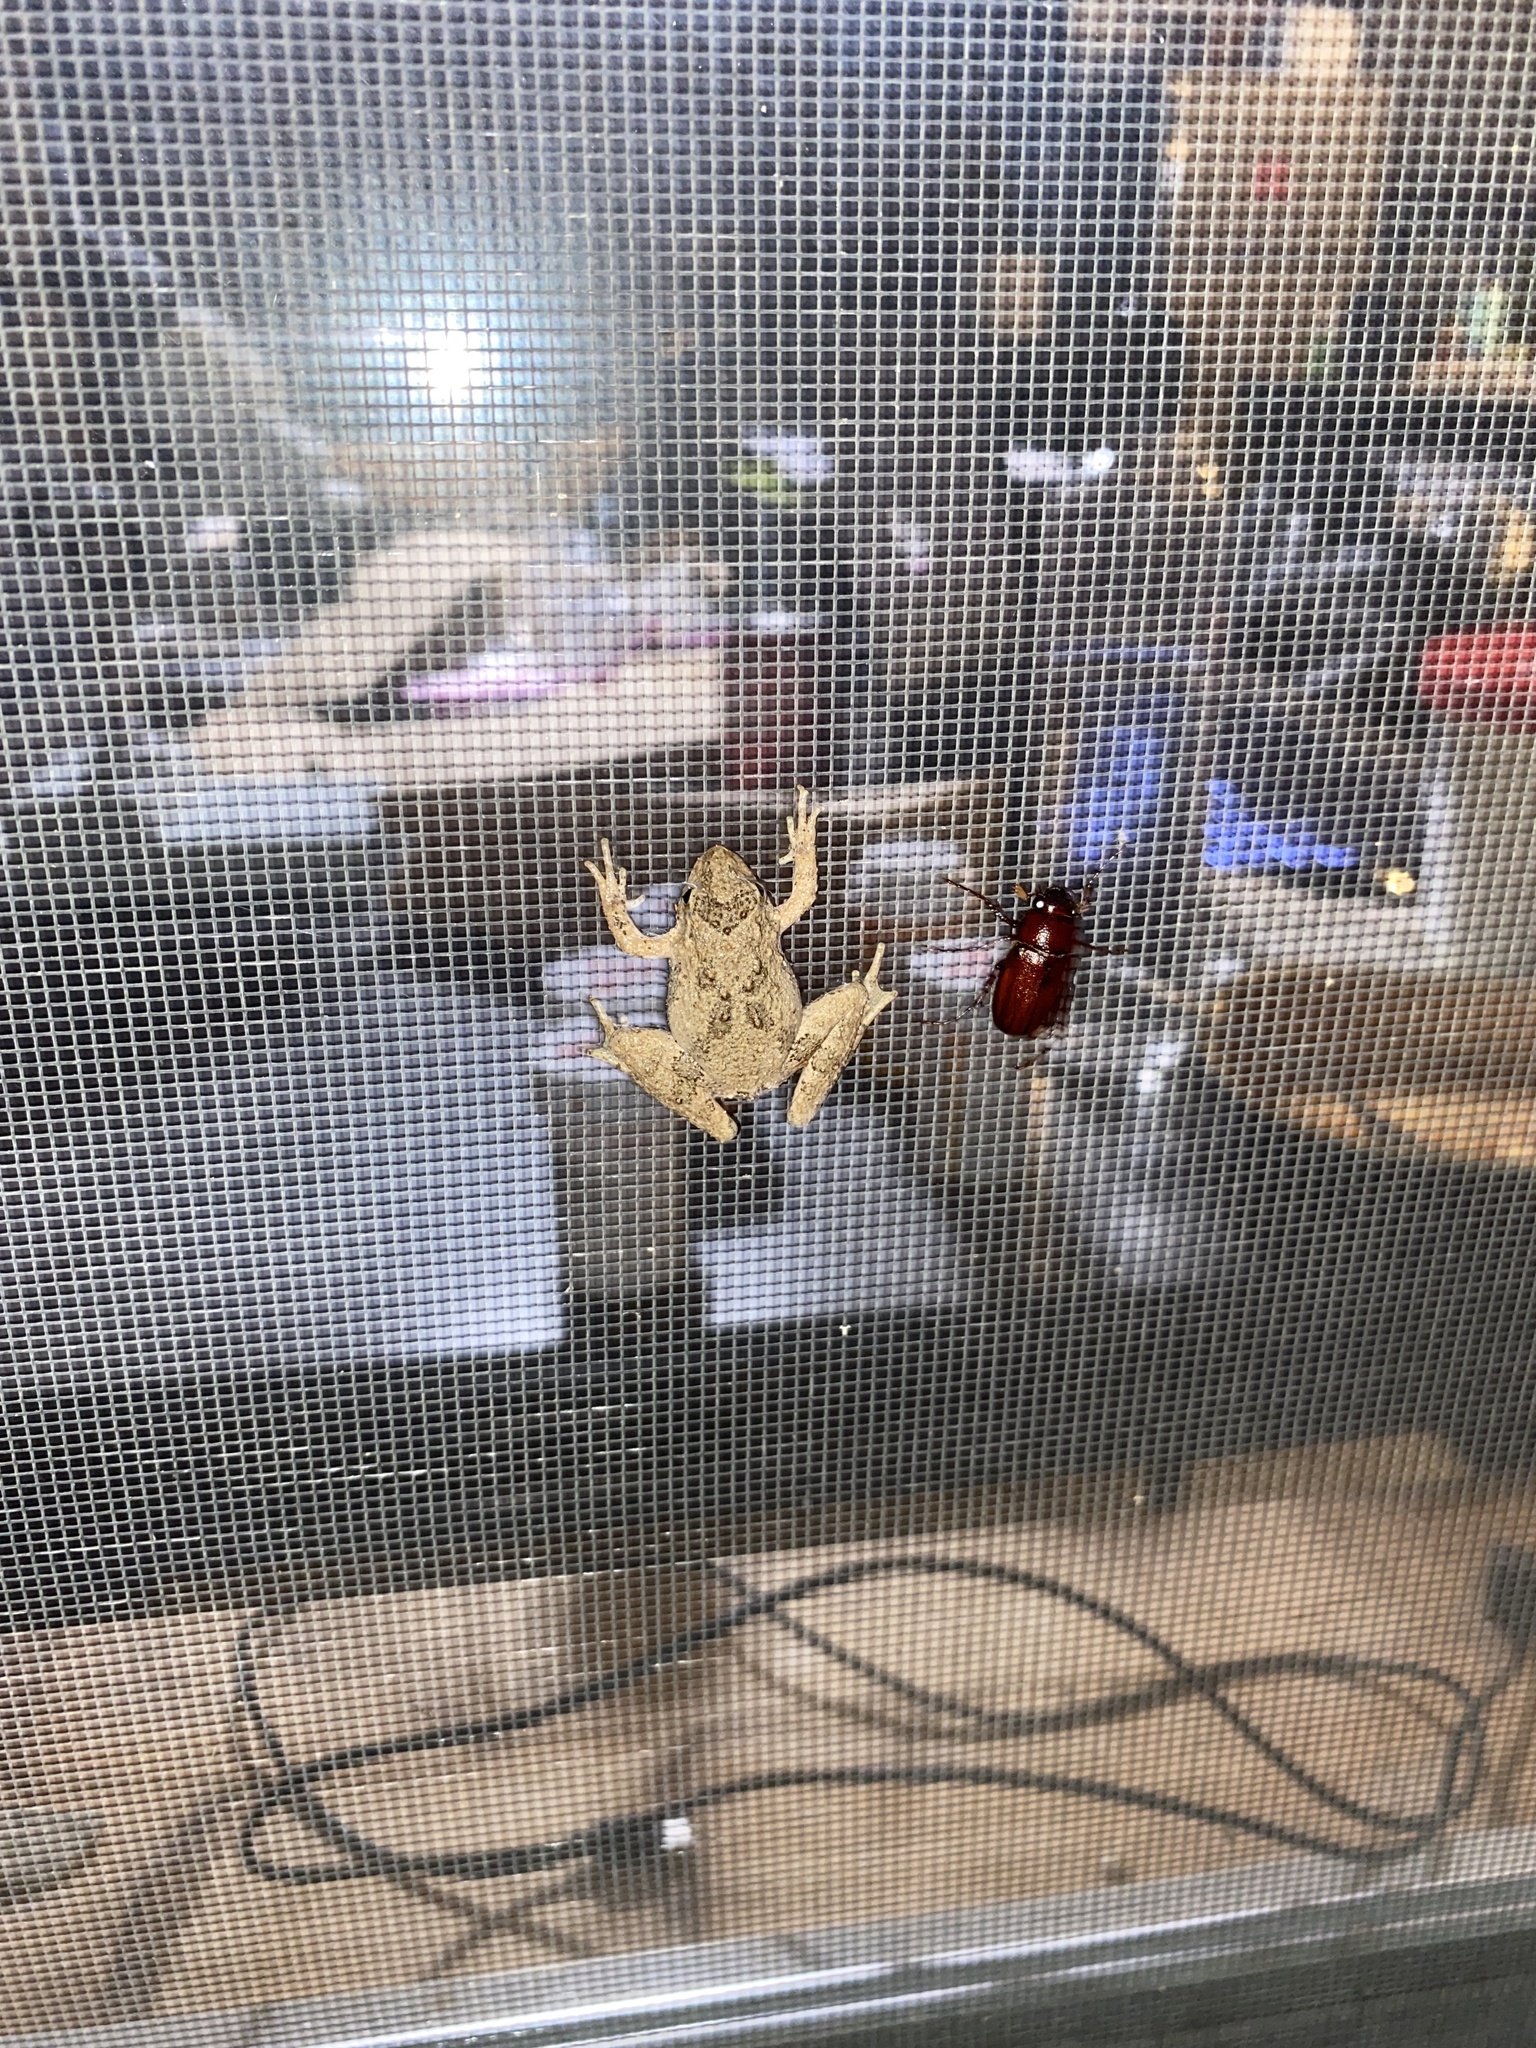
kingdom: Animalia
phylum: Chordata
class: Amphibia
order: Anura
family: Hylidae
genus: Acris
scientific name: Acris blanchardi
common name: Blanchard's cricket frog
